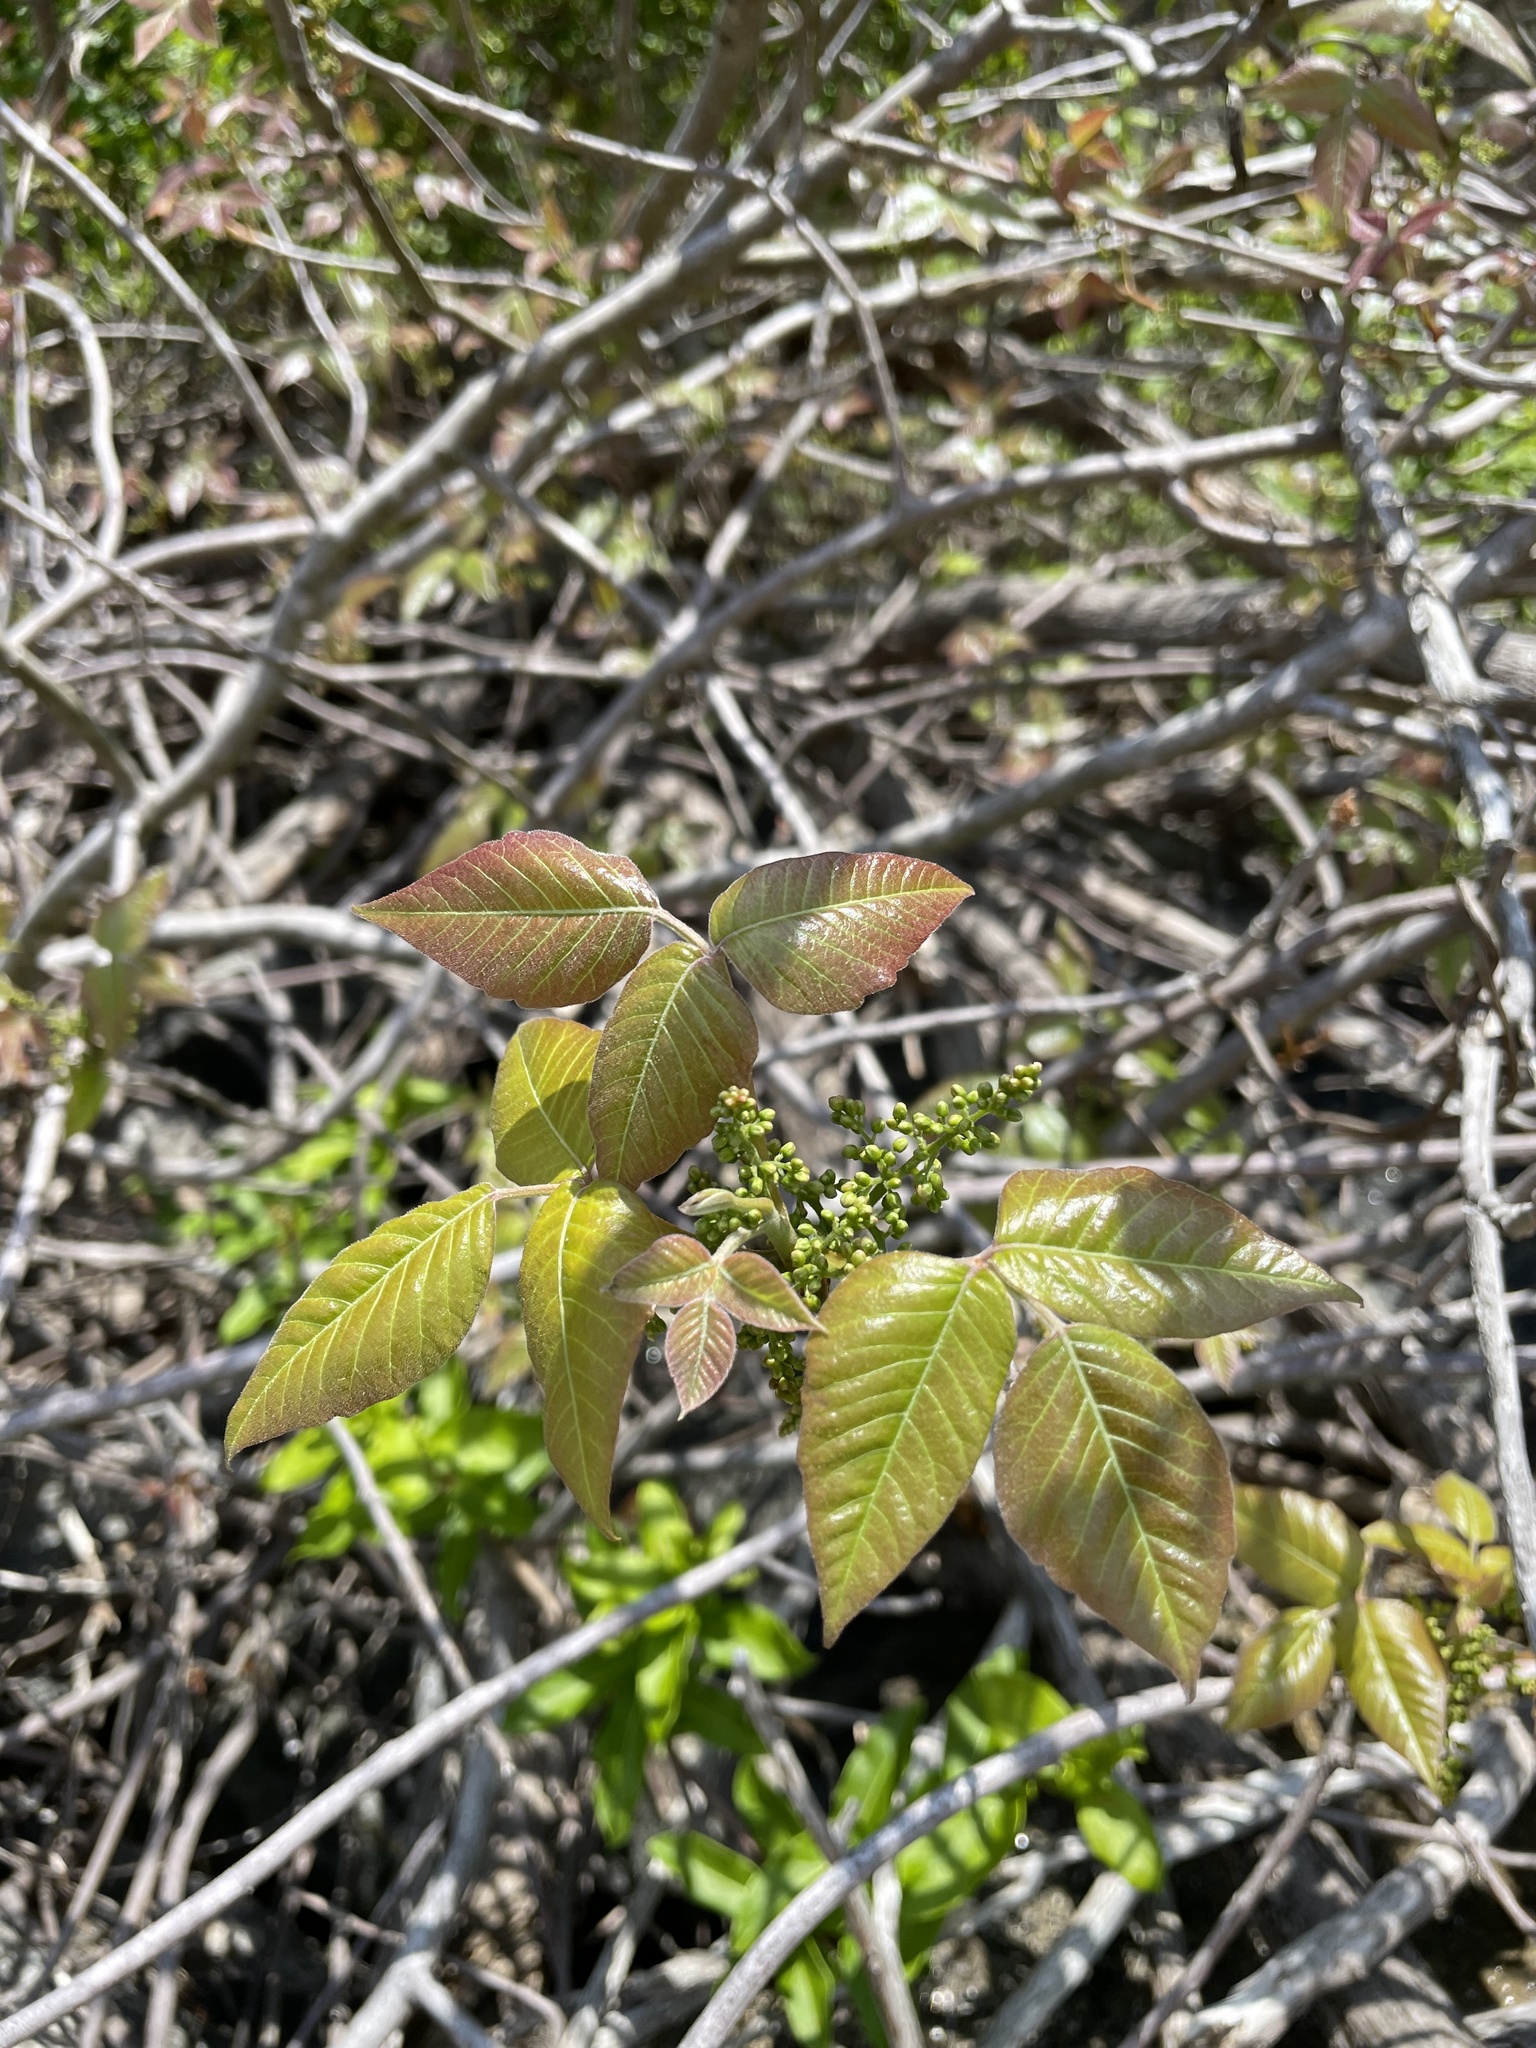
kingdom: Plantae
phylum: Tracheophyta
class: Magnoliopsida
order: Sapindales
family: Anacardiaceae
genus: Toxicodendron
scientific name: Toxicodendron radicans
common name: Poison ivy
